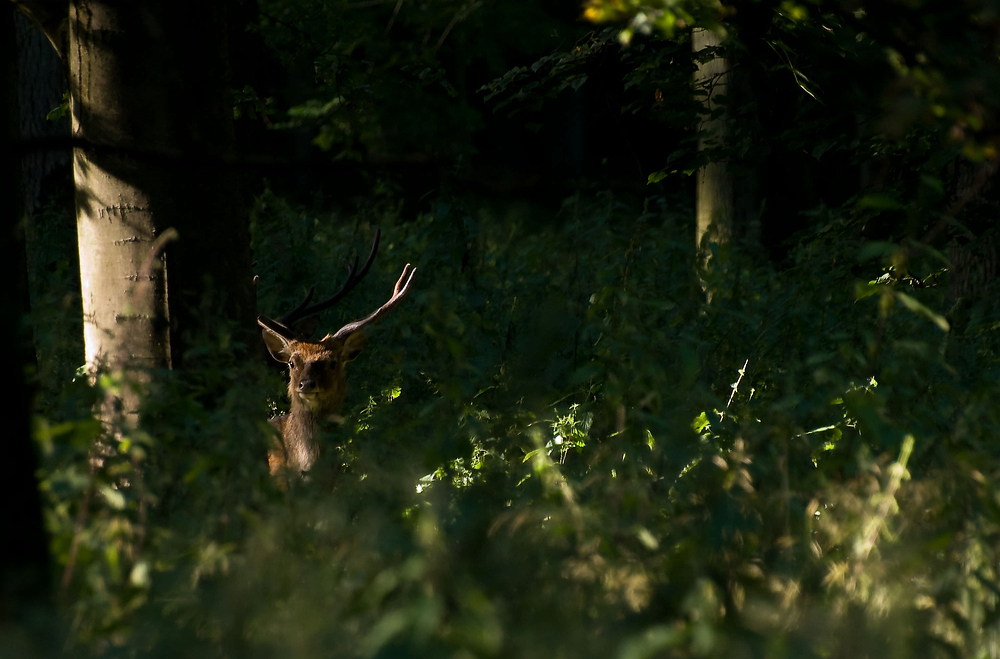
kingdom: Animalia
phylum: Chordata
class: Mammalia
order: Artiodactyla
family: Cervidae
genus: Cervus
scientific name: Cervus nippon
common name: Sika deer
